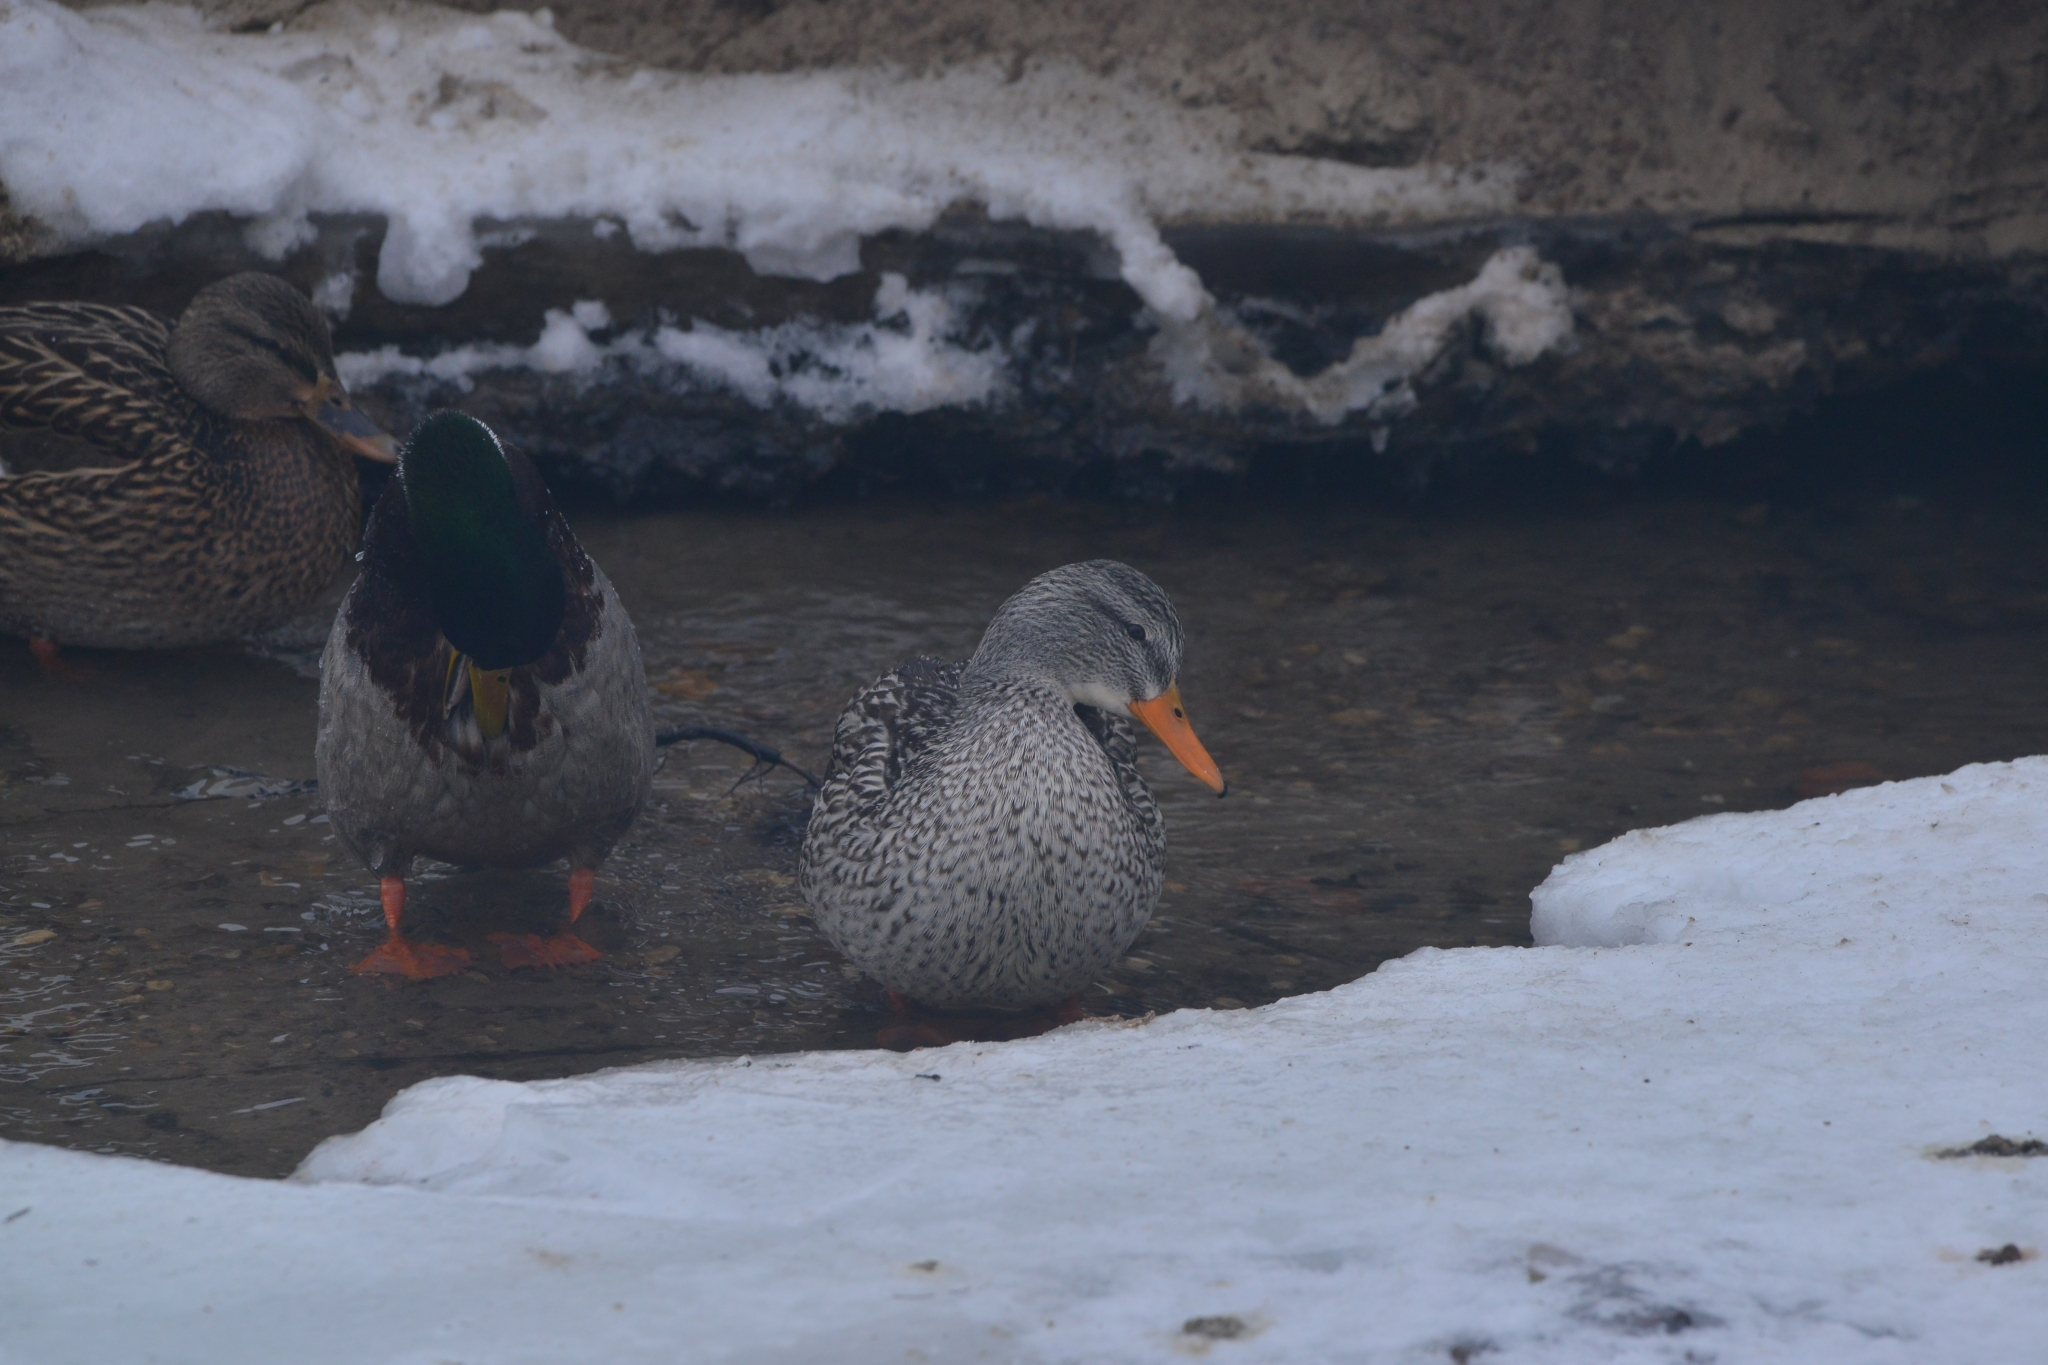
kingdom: Animalia
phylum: Chordata
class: Aves
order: Anseriformes
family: Anatidae
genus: Anas
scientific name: Anas platyrhynchos
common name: Mallard
